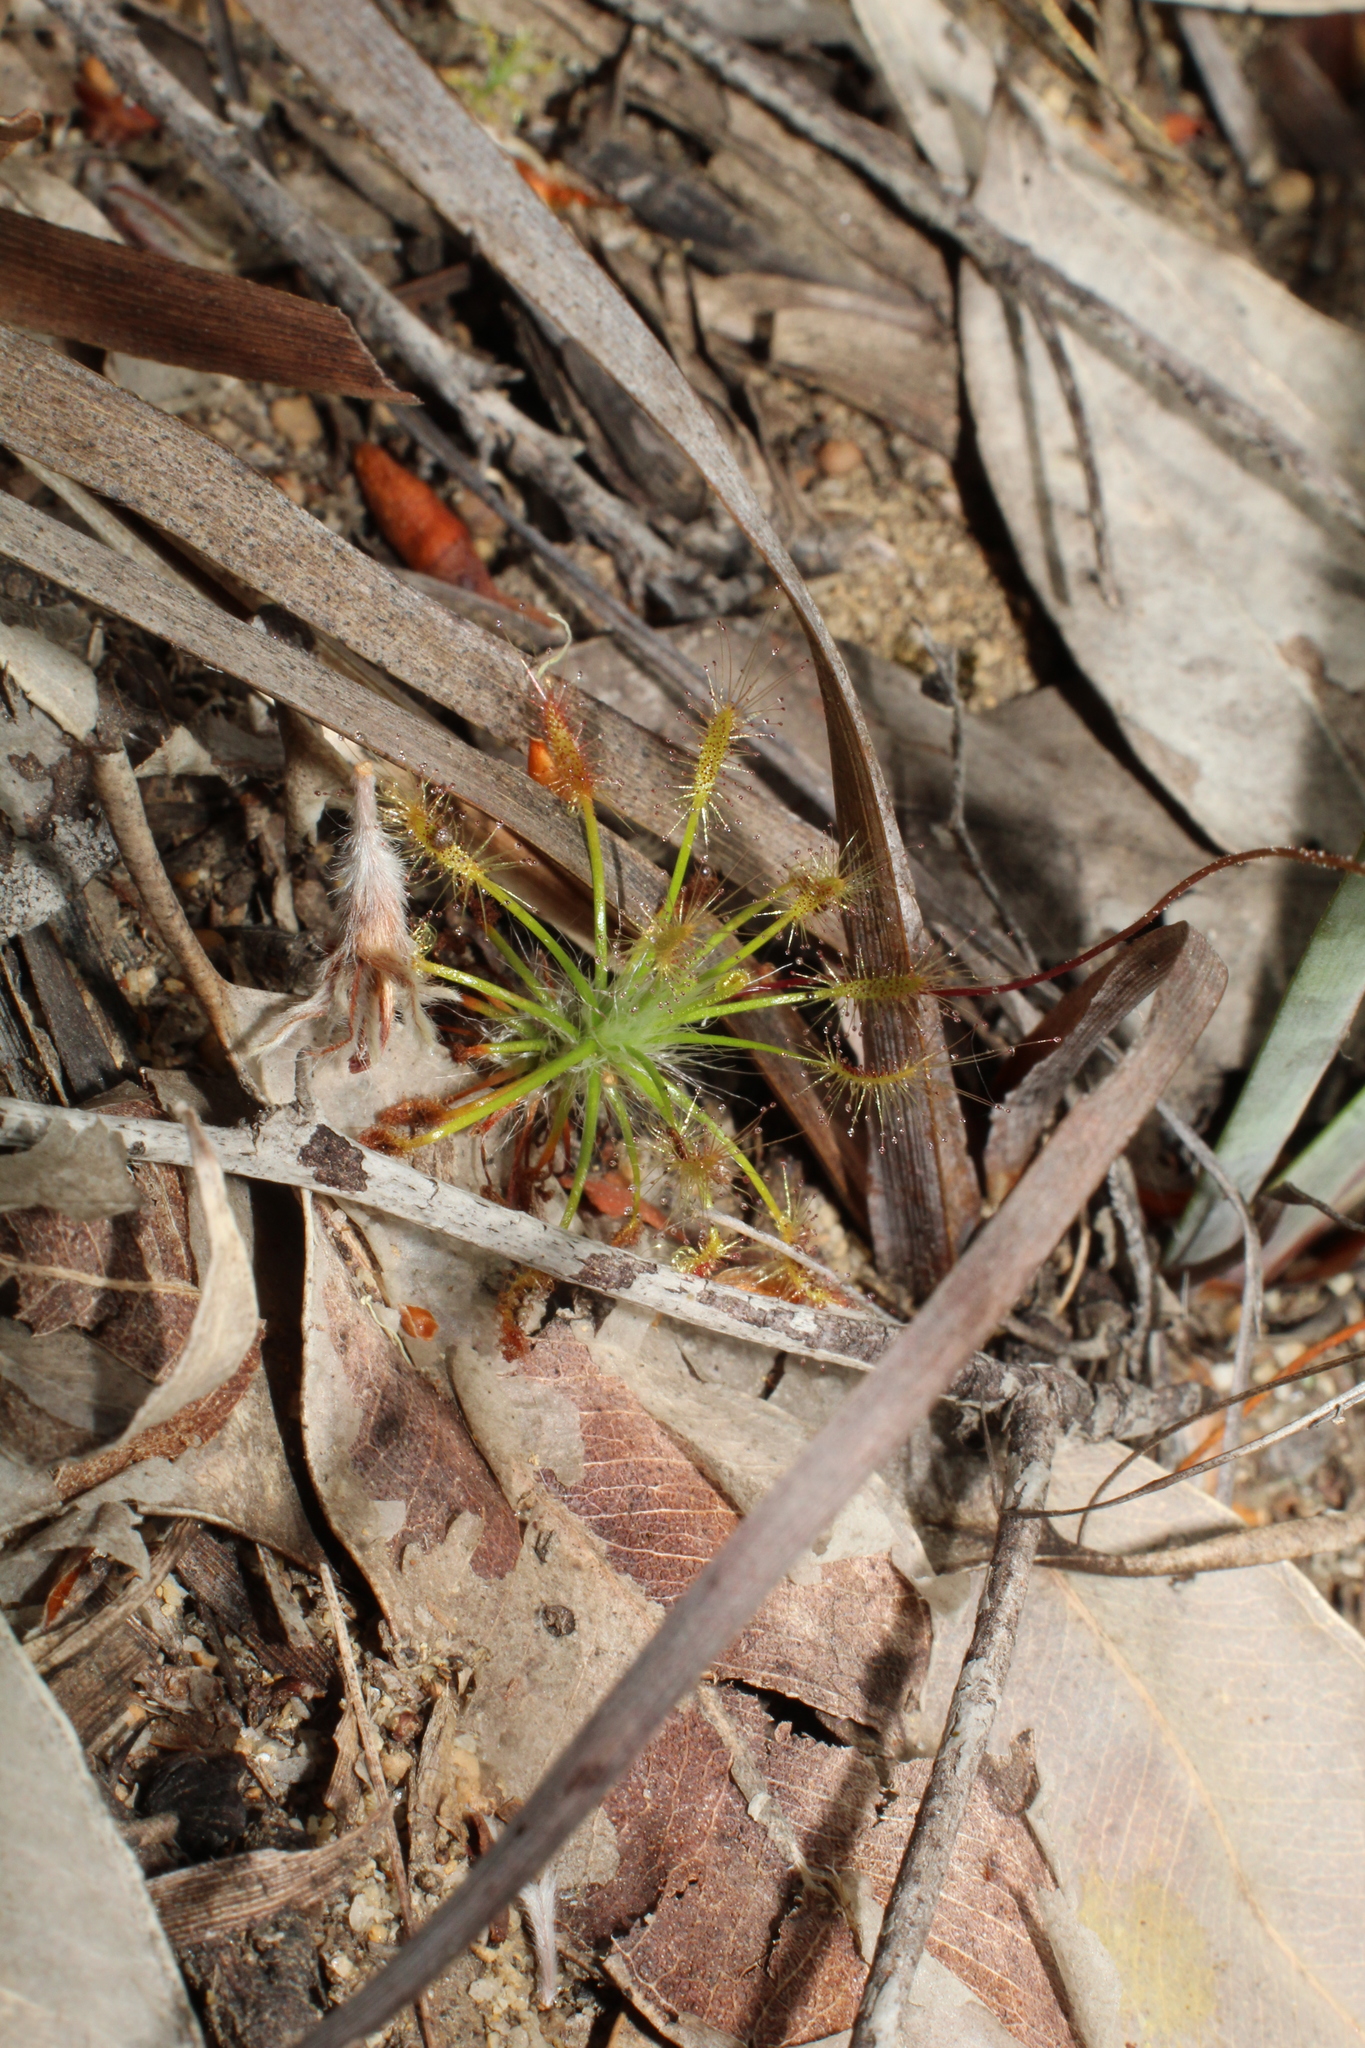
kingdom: Plantae
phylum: Tracheophyta
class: Magnoliopsida
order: Caryophyllales
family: Droseraceae
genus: Drosera
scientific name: Drosera barbigera
